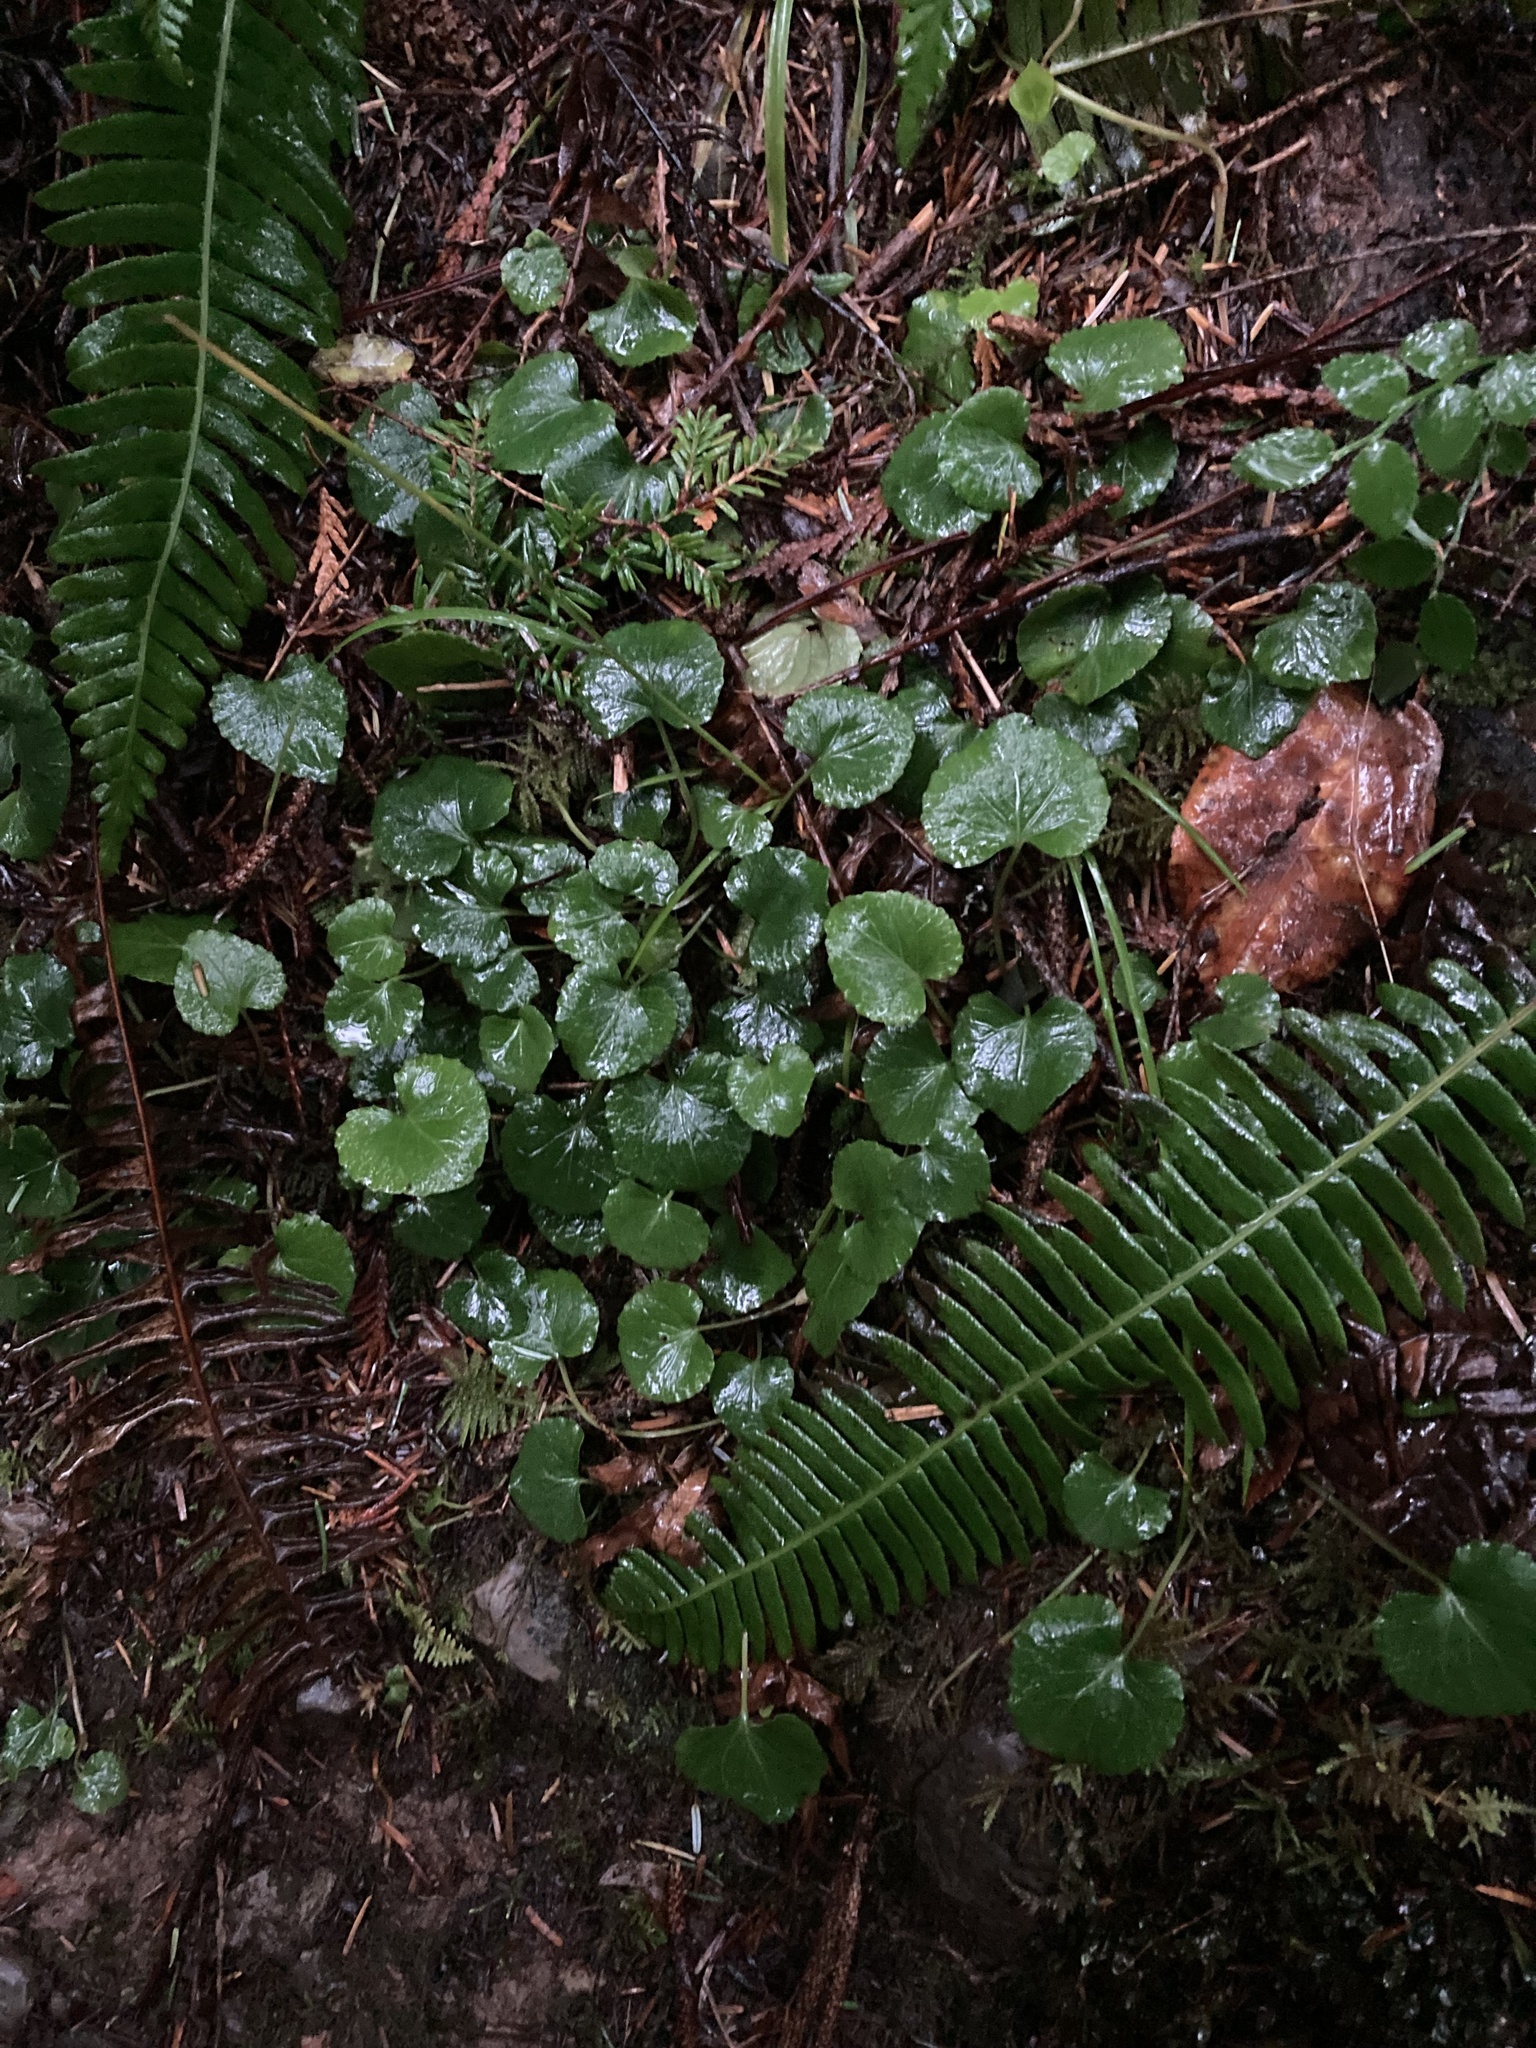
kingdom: Plantae
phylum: Tracheophyta
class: Magnoliopsida
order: Malpighiales
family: Violaceae
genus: Viola
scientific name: Viola sempervirens
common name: Evergreen violet
